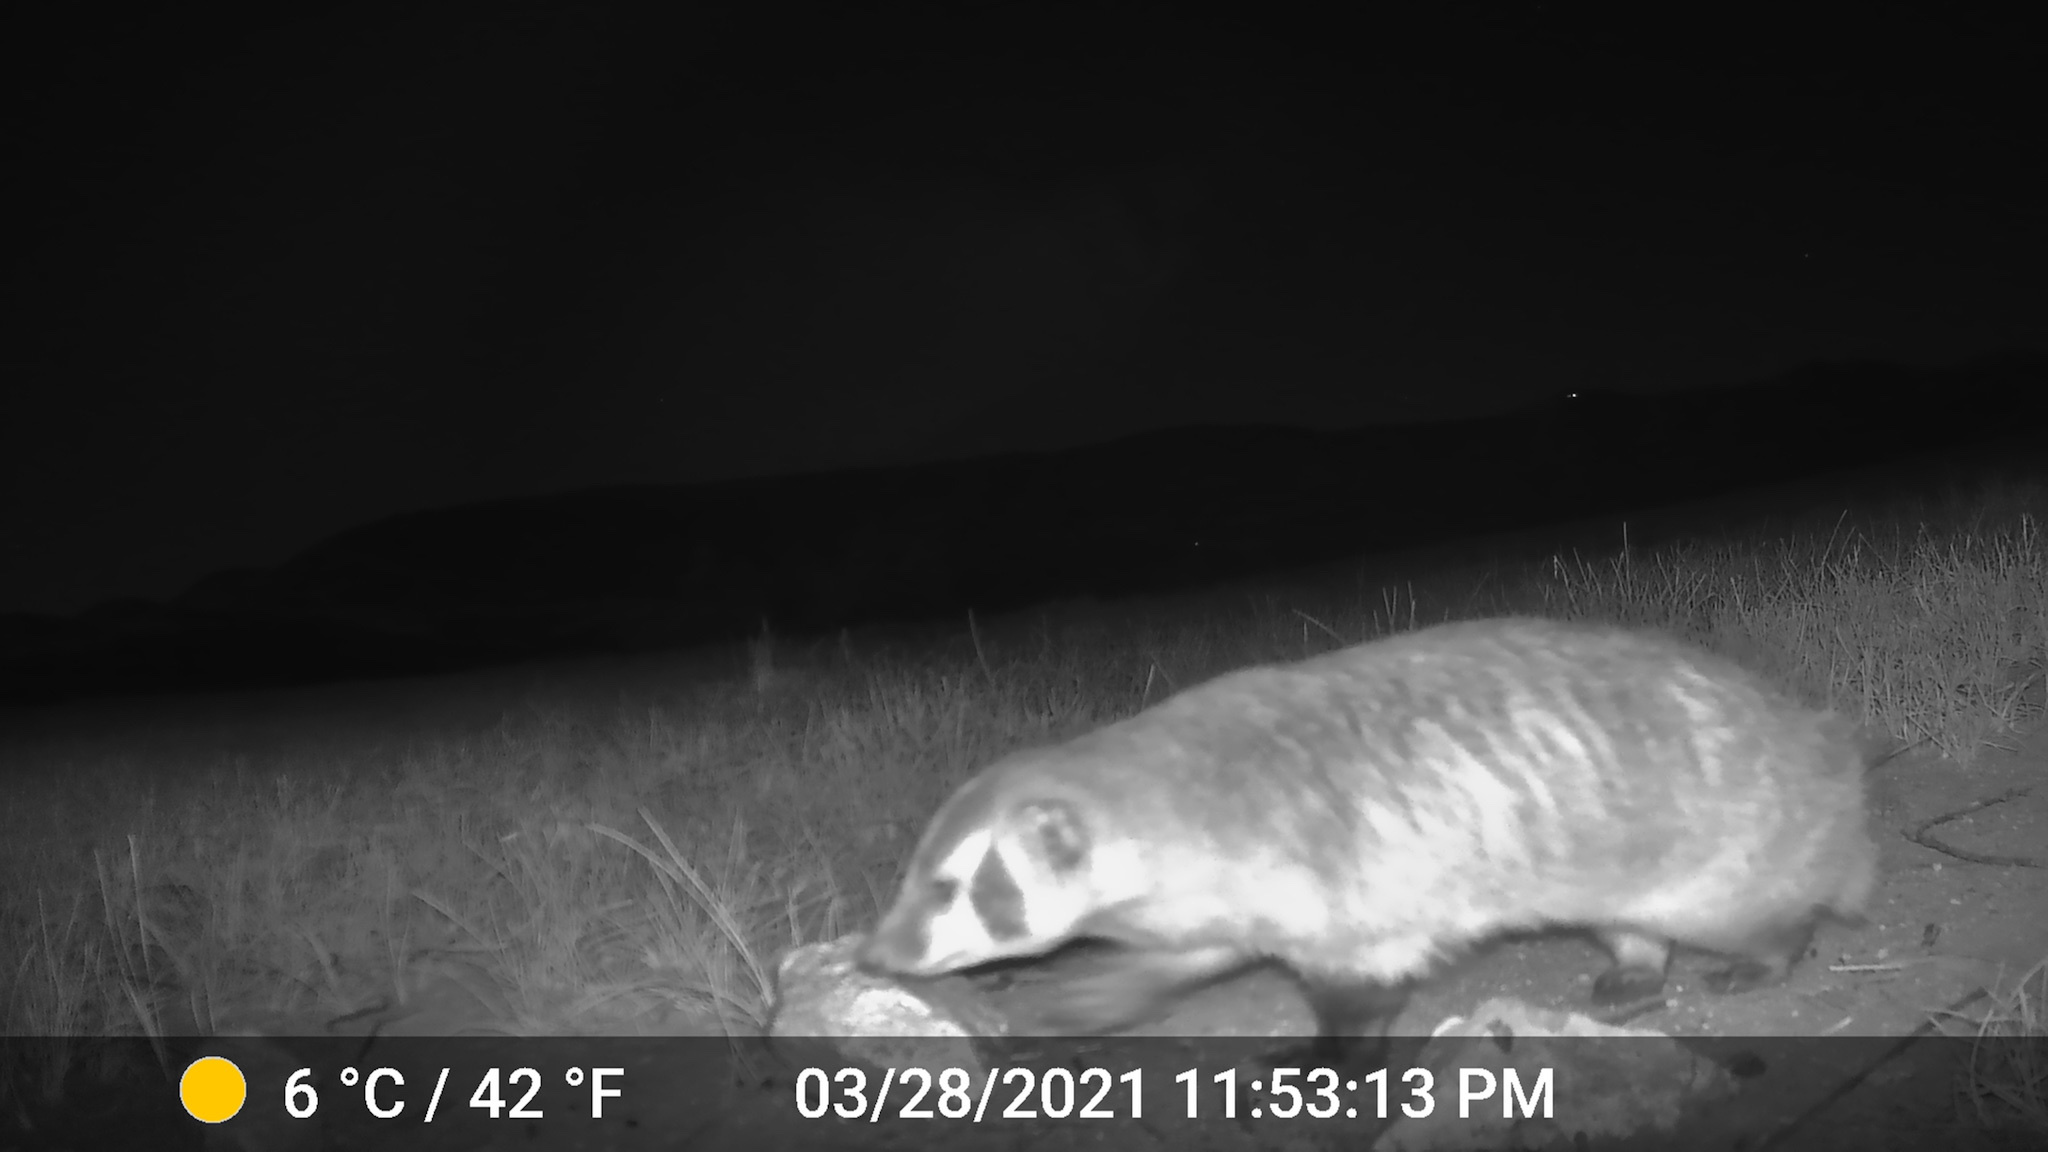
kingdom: Animalia
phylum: Chordata
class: Mammalia
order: Carnivora
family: Mustelidae
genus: Taxidea
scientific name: Taxidea taxus
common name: American badger
